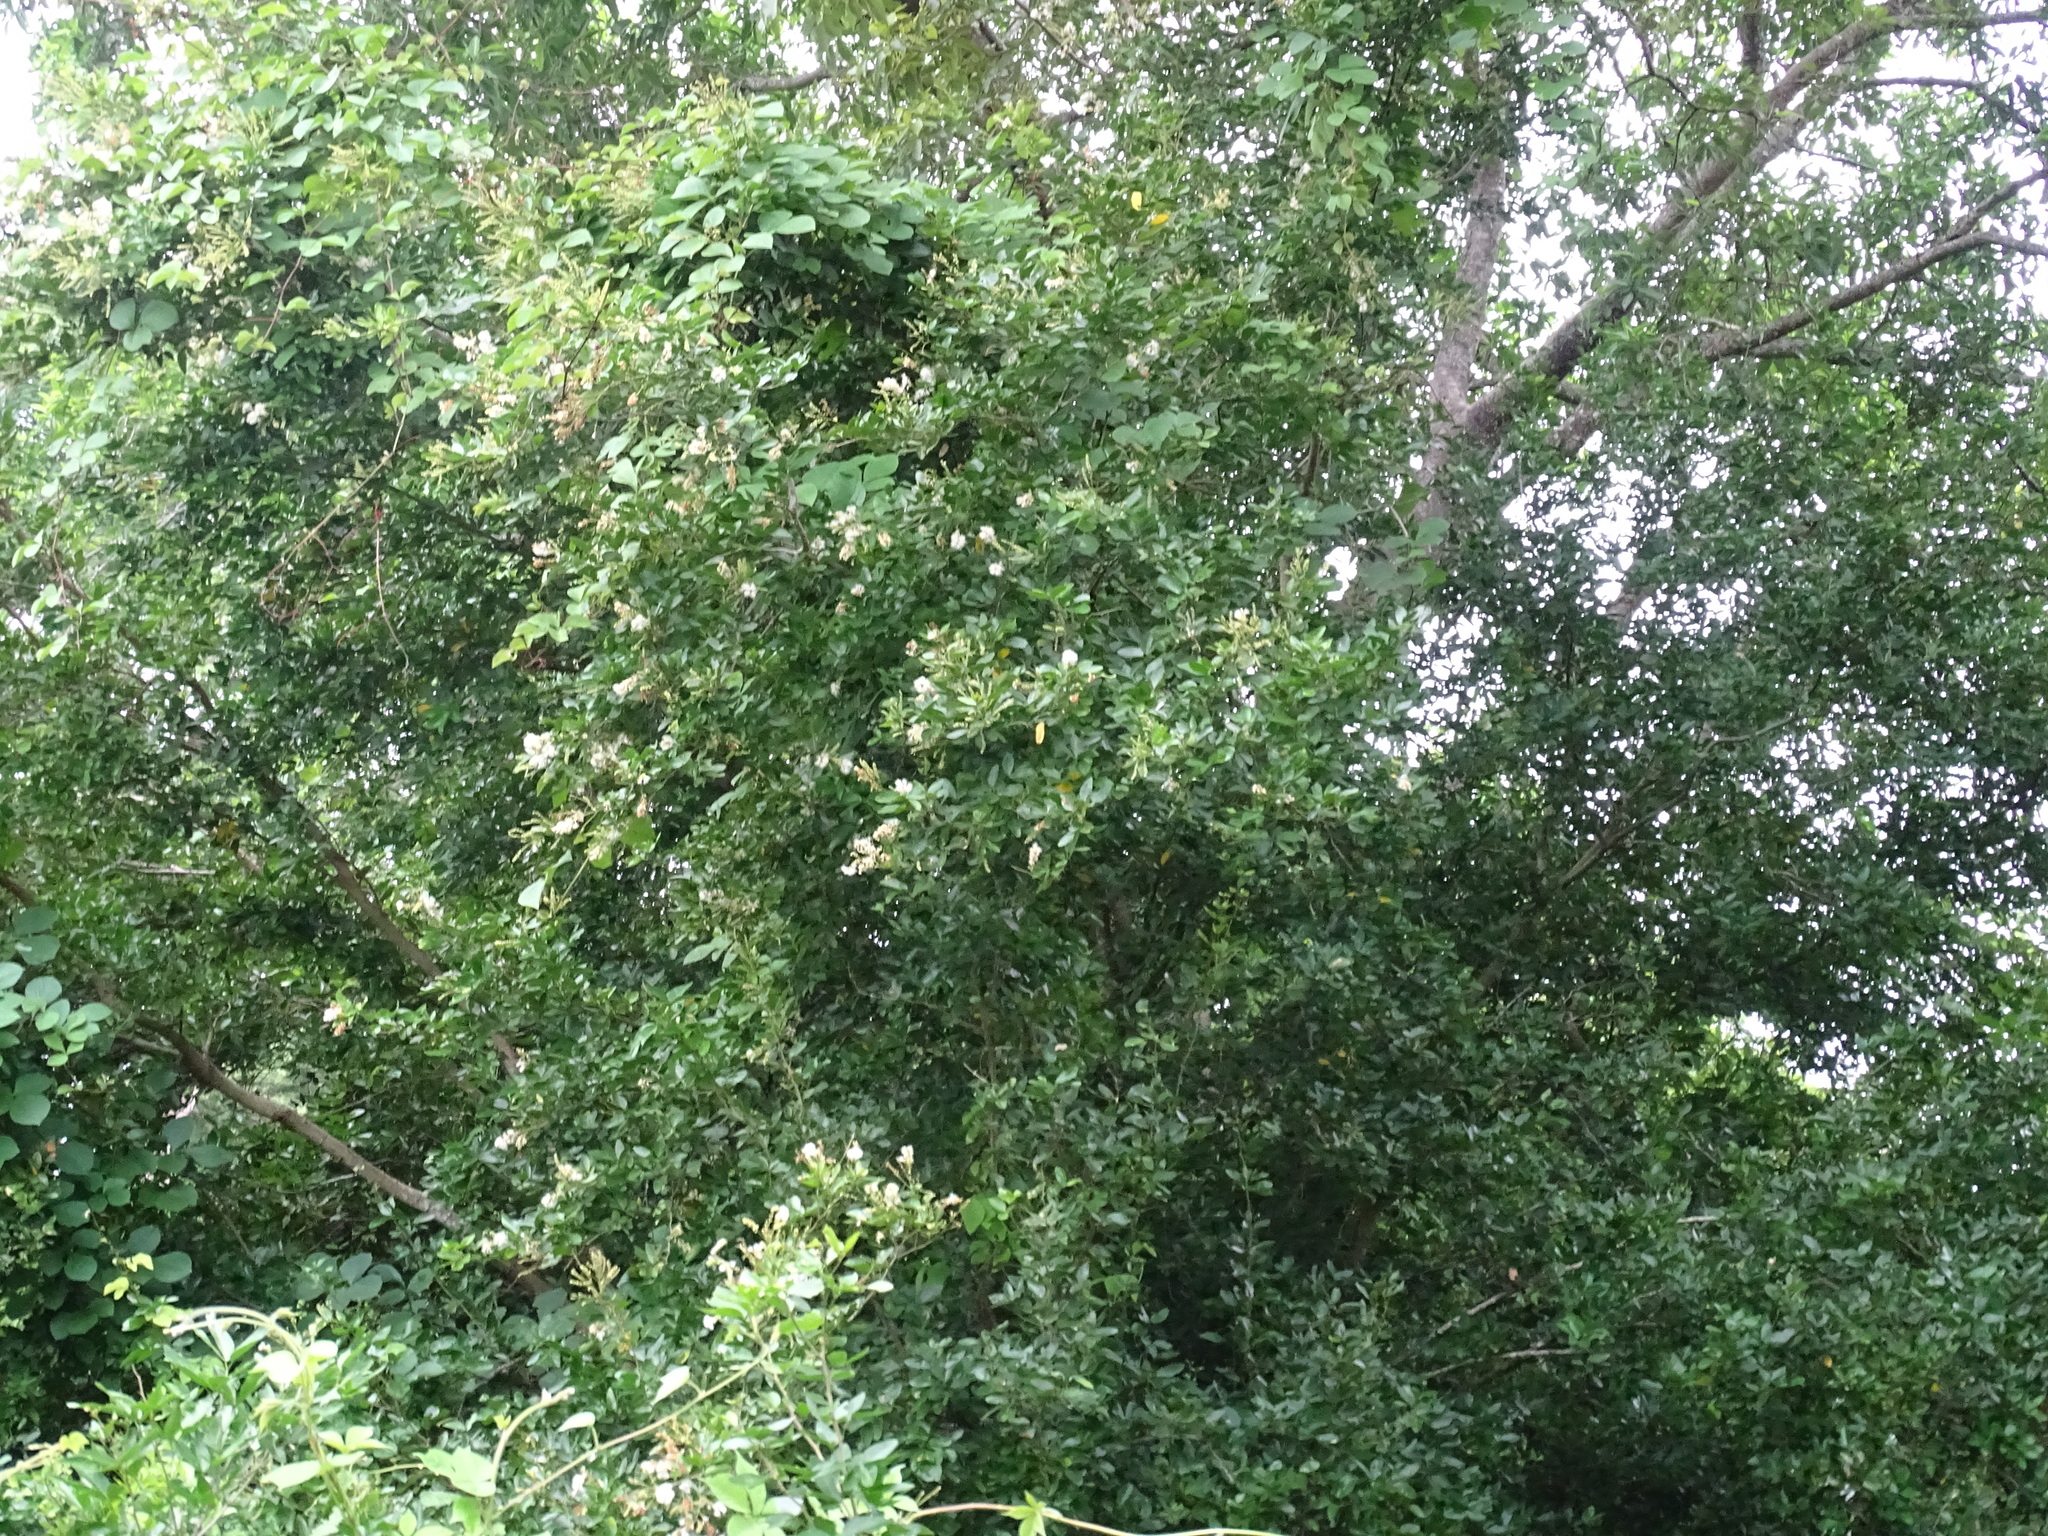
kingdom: Plantae
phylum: Tracheophyta
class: Magnoliopsida
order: Fabales
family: Fabaceae
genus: Pithecellobium
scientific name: Pithecellobium lanceolatum
